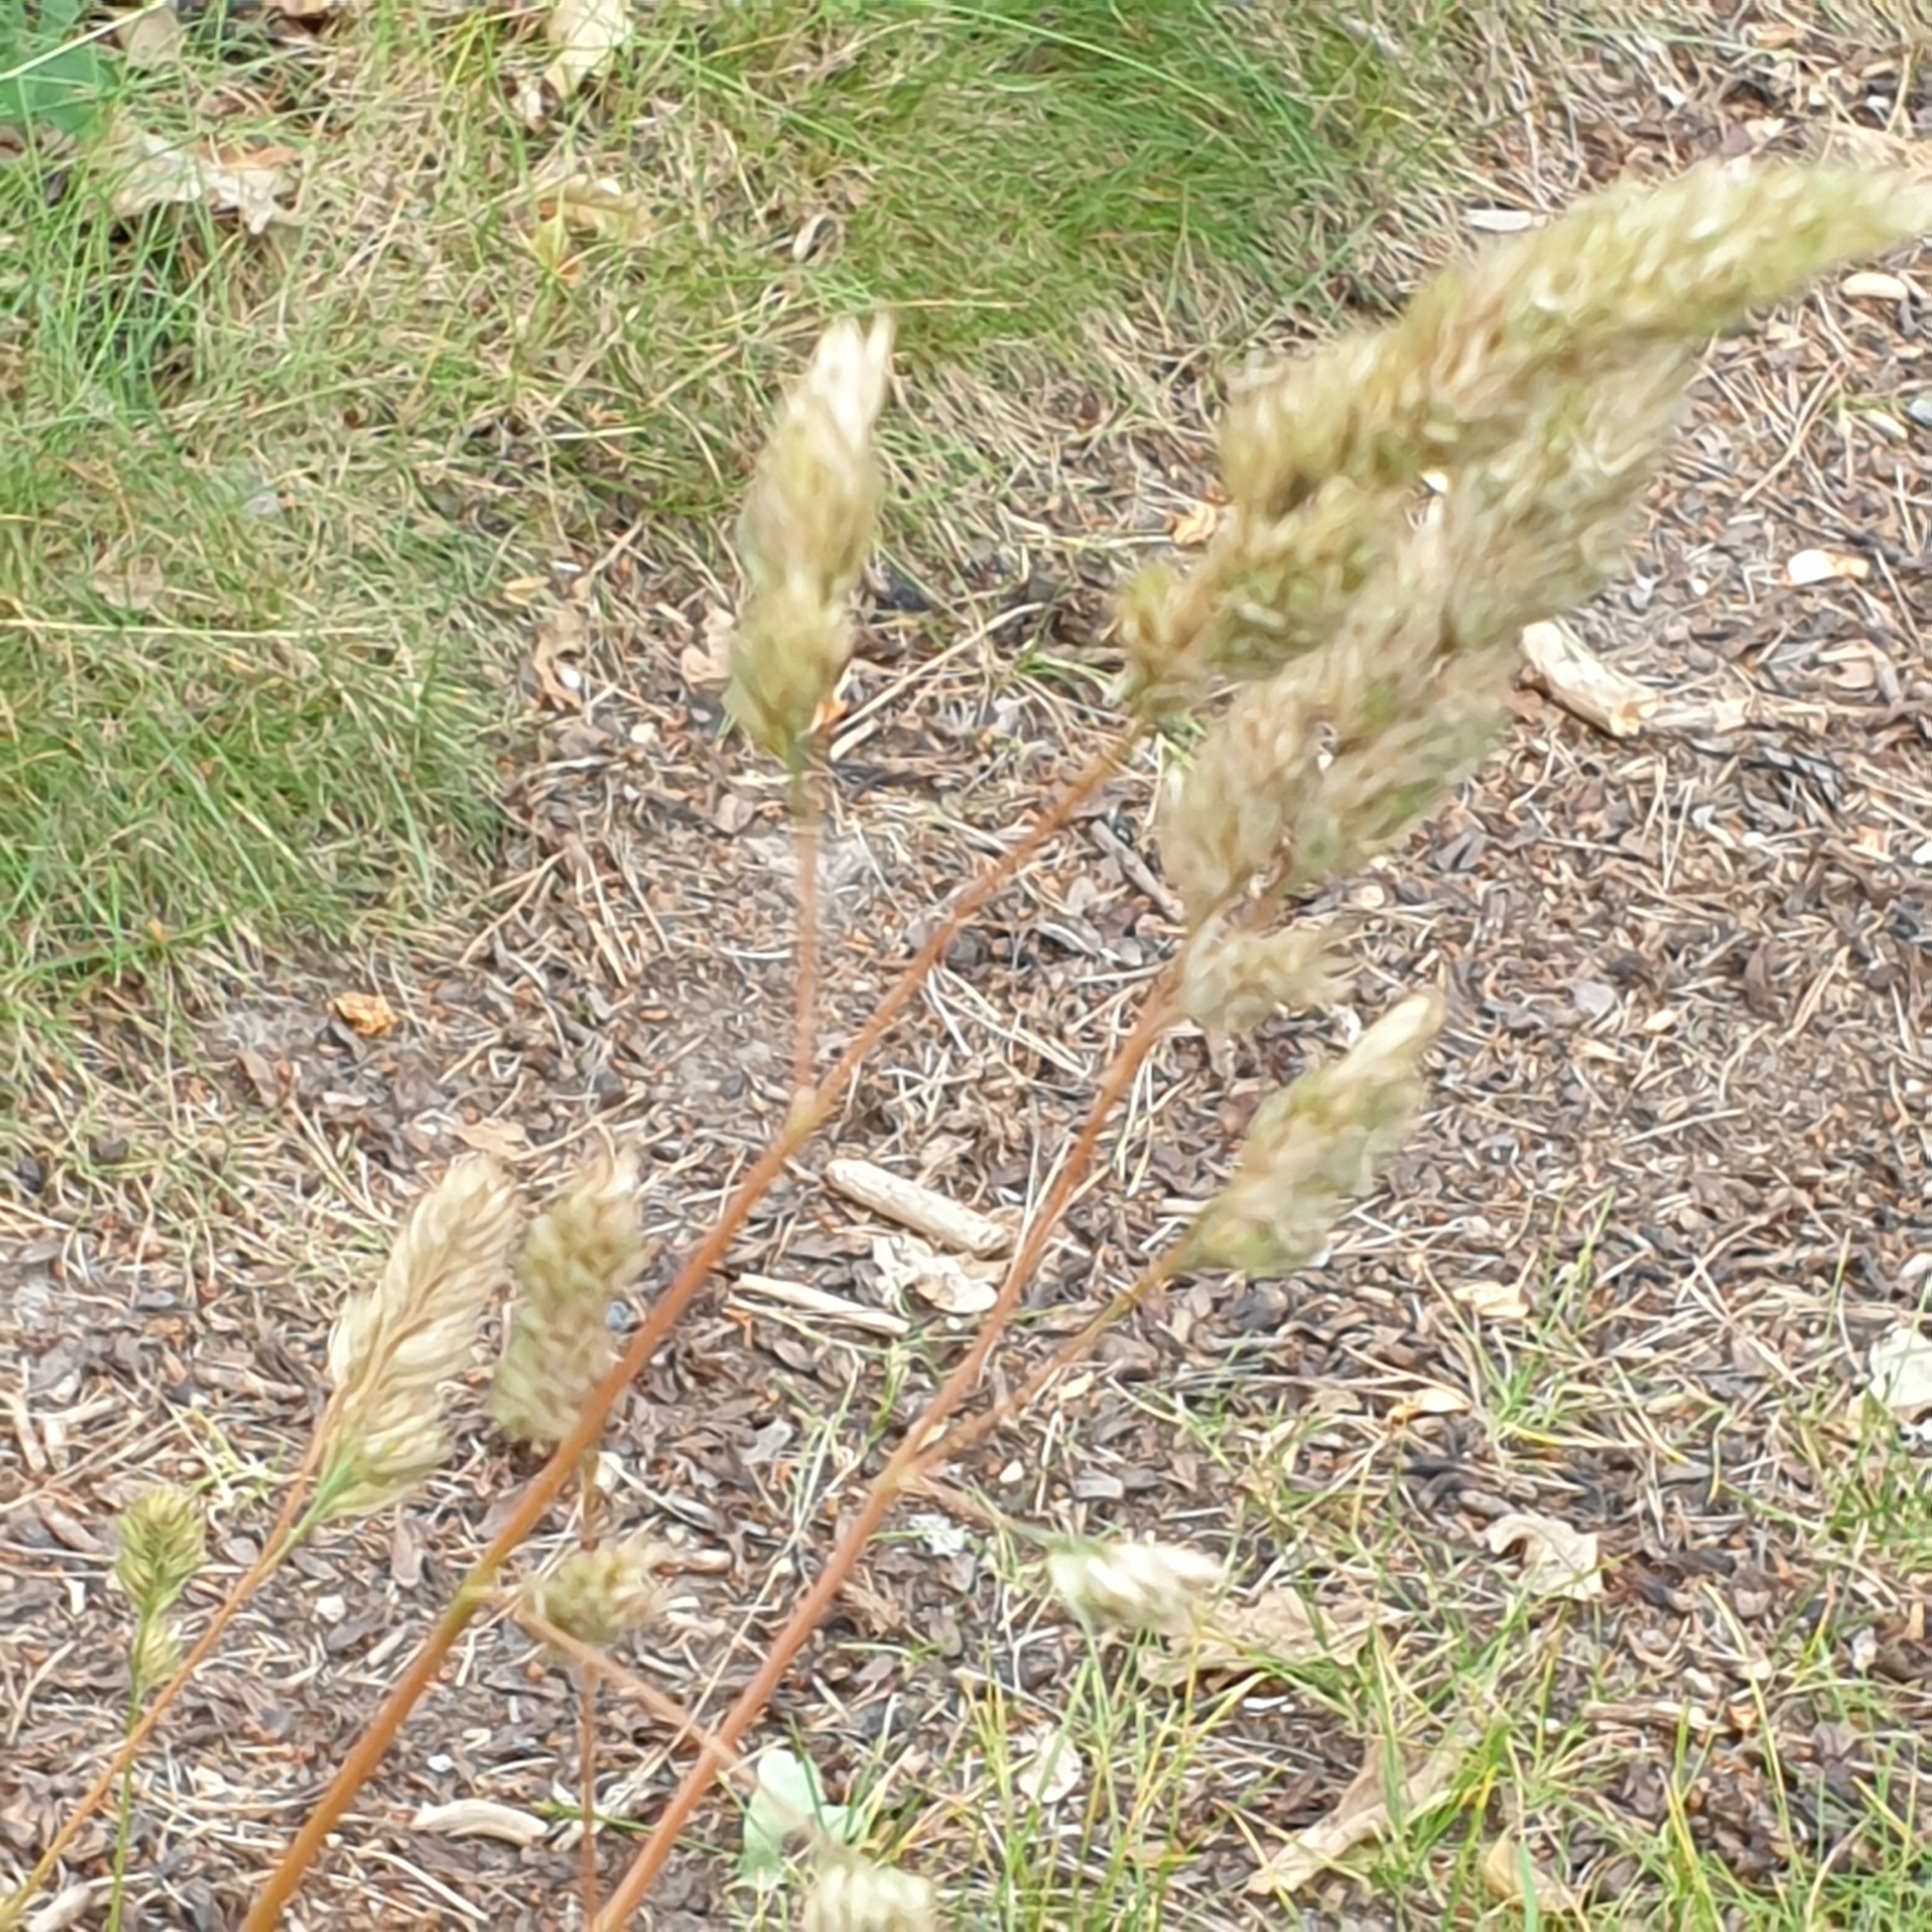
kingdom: Plantae
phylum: Tracheophyta
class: Liliopsida
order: Poales
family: Poaceae
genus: Dactylis
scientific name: Dactylis glomerata
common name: Orchardgrass
